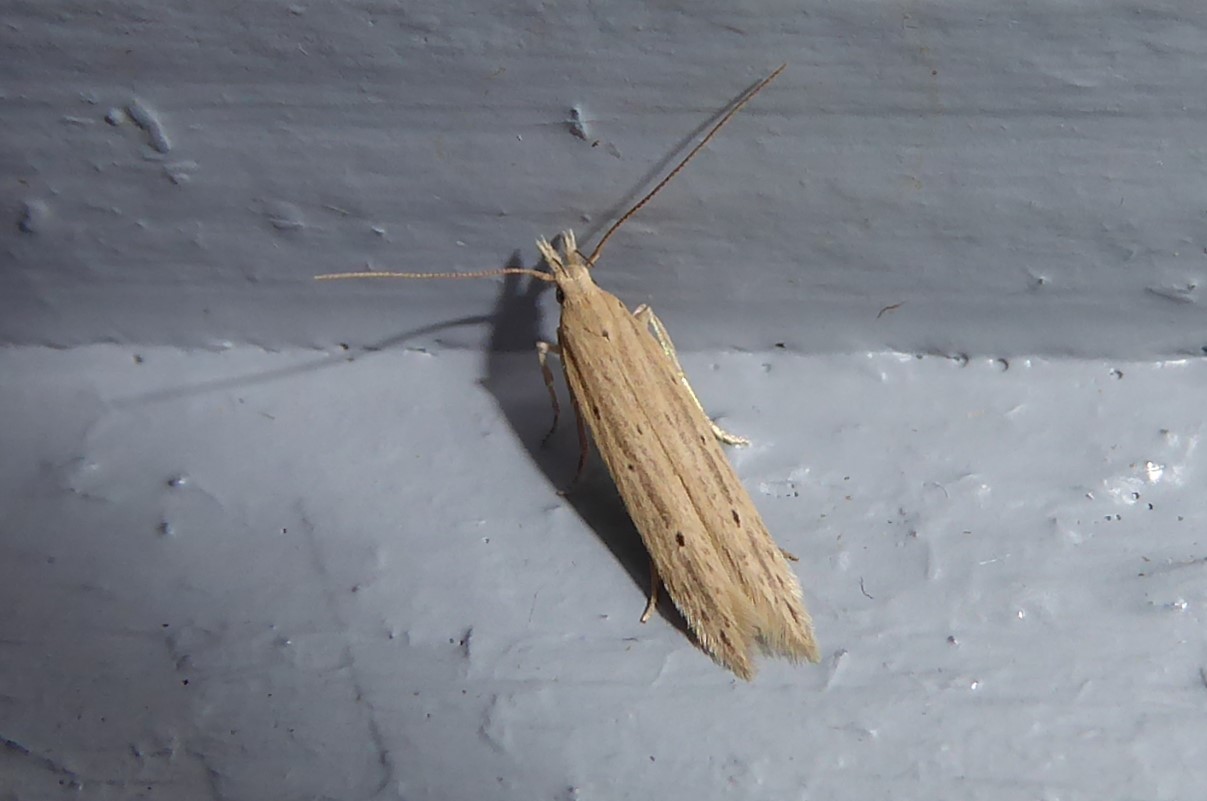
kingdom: Animalia
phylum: Arthropoda
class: Insecta
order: Lepidoptera
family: Gelechiidae
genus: Epiphthora
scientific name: Epiphthora calamogonus
